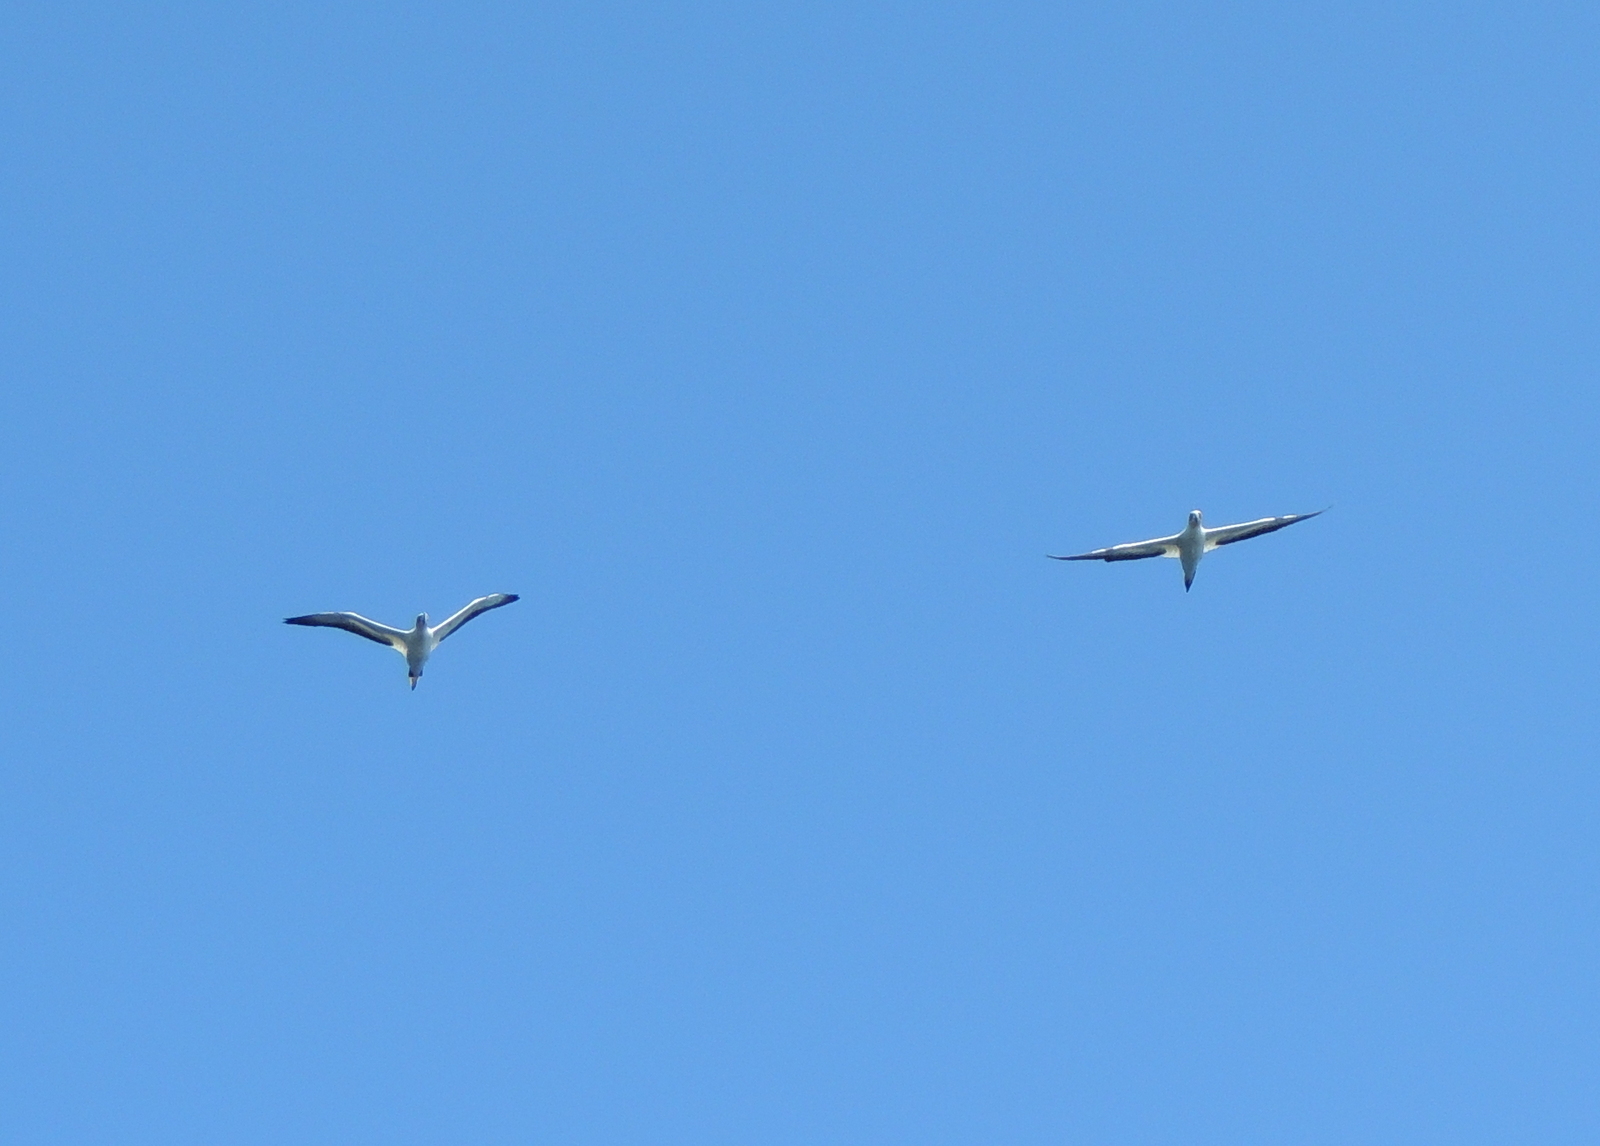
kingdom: Animalia
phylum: Chordata
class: Aves
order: Suliformes
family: Sulidae
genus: Morus
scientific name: Morus serrator
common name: Australasian gannet
